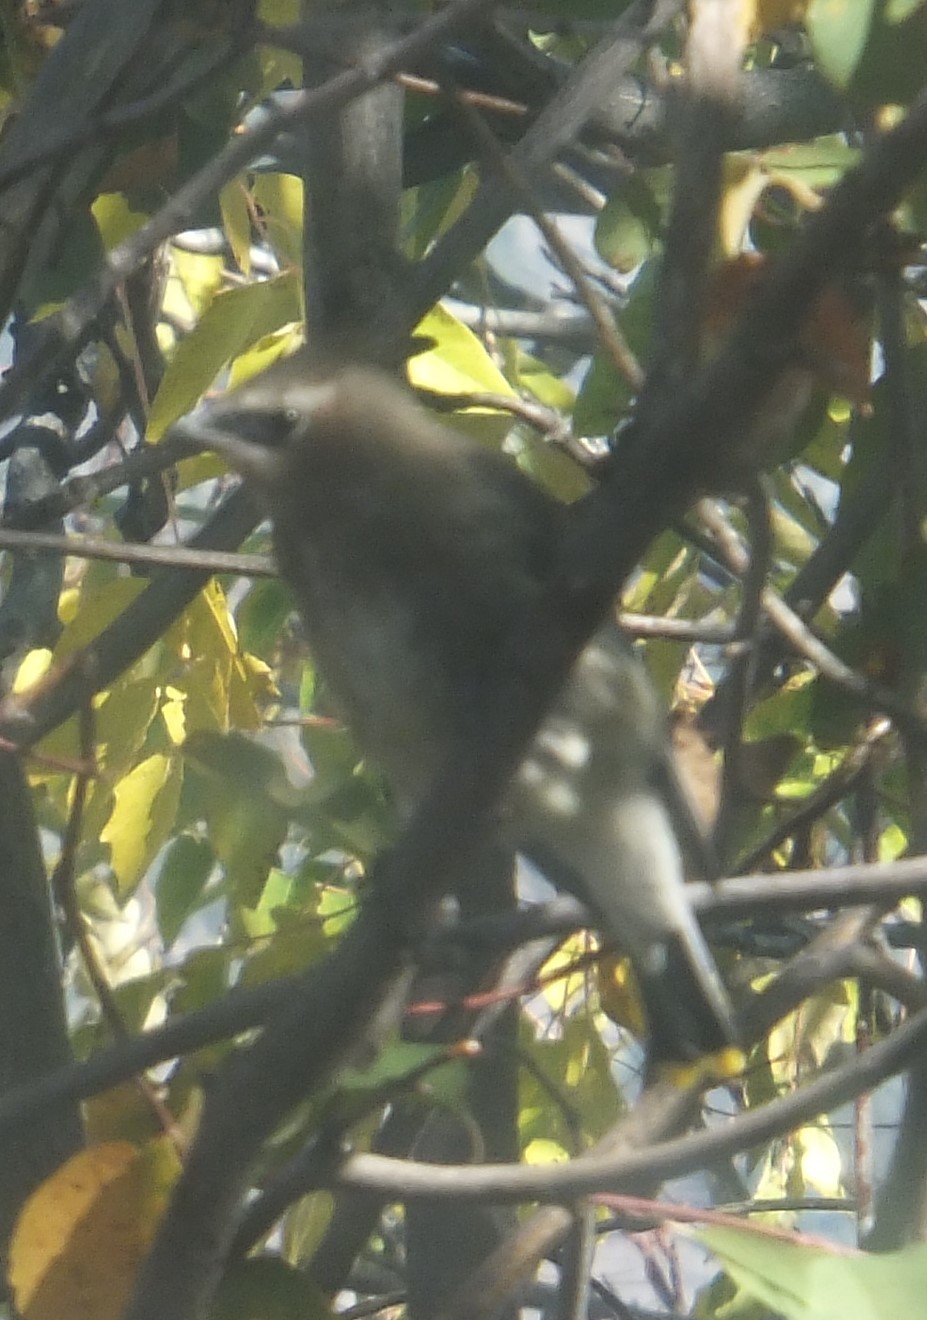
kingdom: Animalia
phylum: Chordata
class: Aves
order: Passeriformes
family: Bombycillidae
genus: Bombycilla
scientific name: Bombycilla cedrorum
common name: Cedar waxwing
